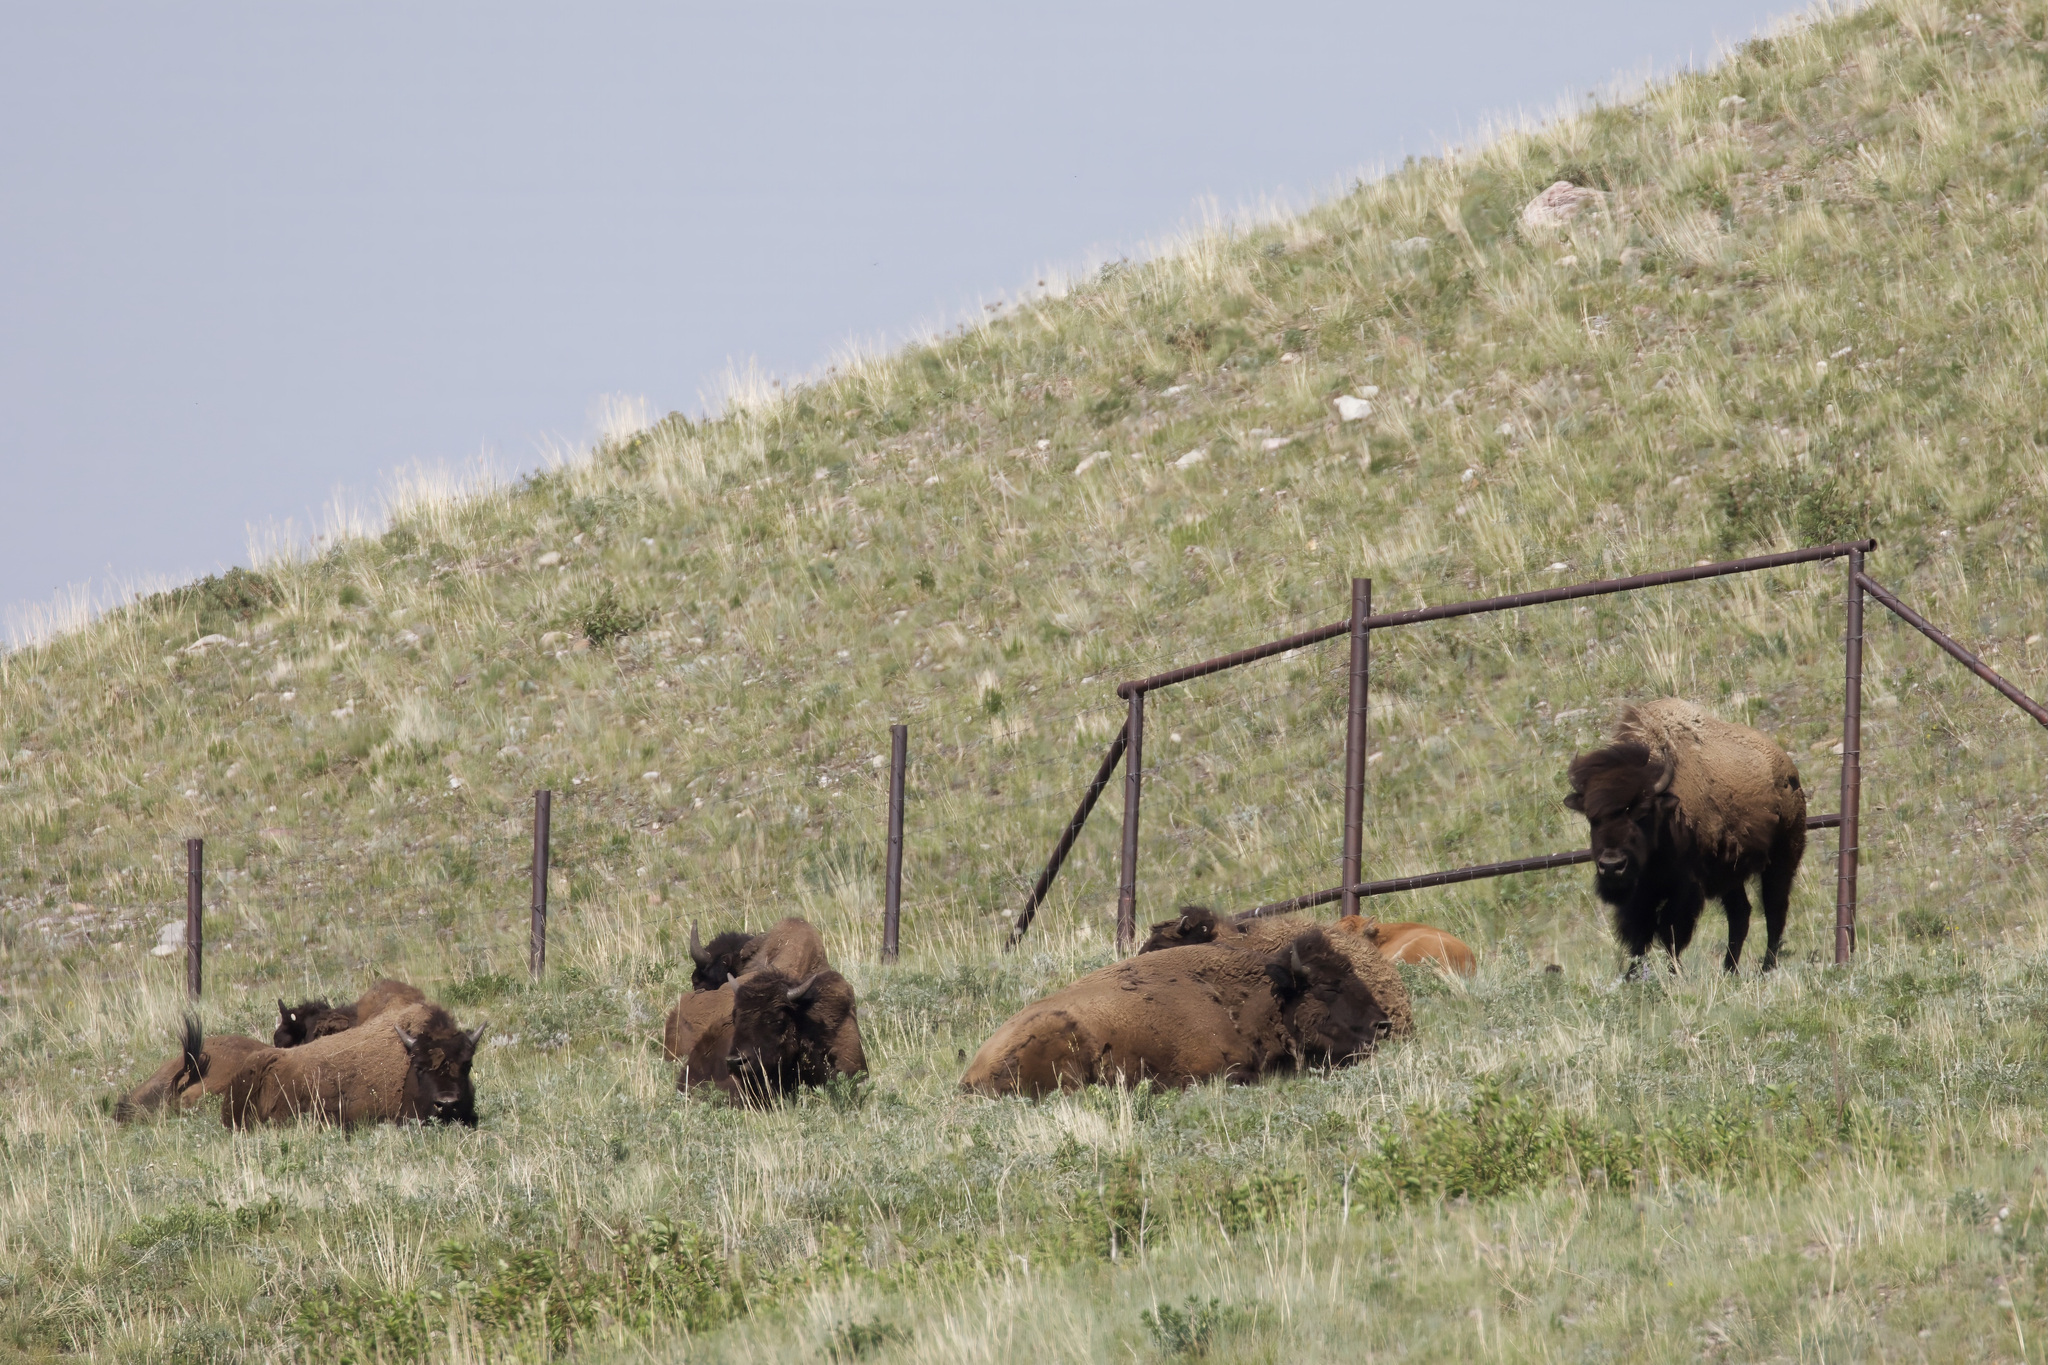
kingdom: Animalia
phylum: Chordata
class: Mammalia
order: Artiodactyla
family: Bovidae
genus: Bison
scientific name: Bison bison
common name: American bison
